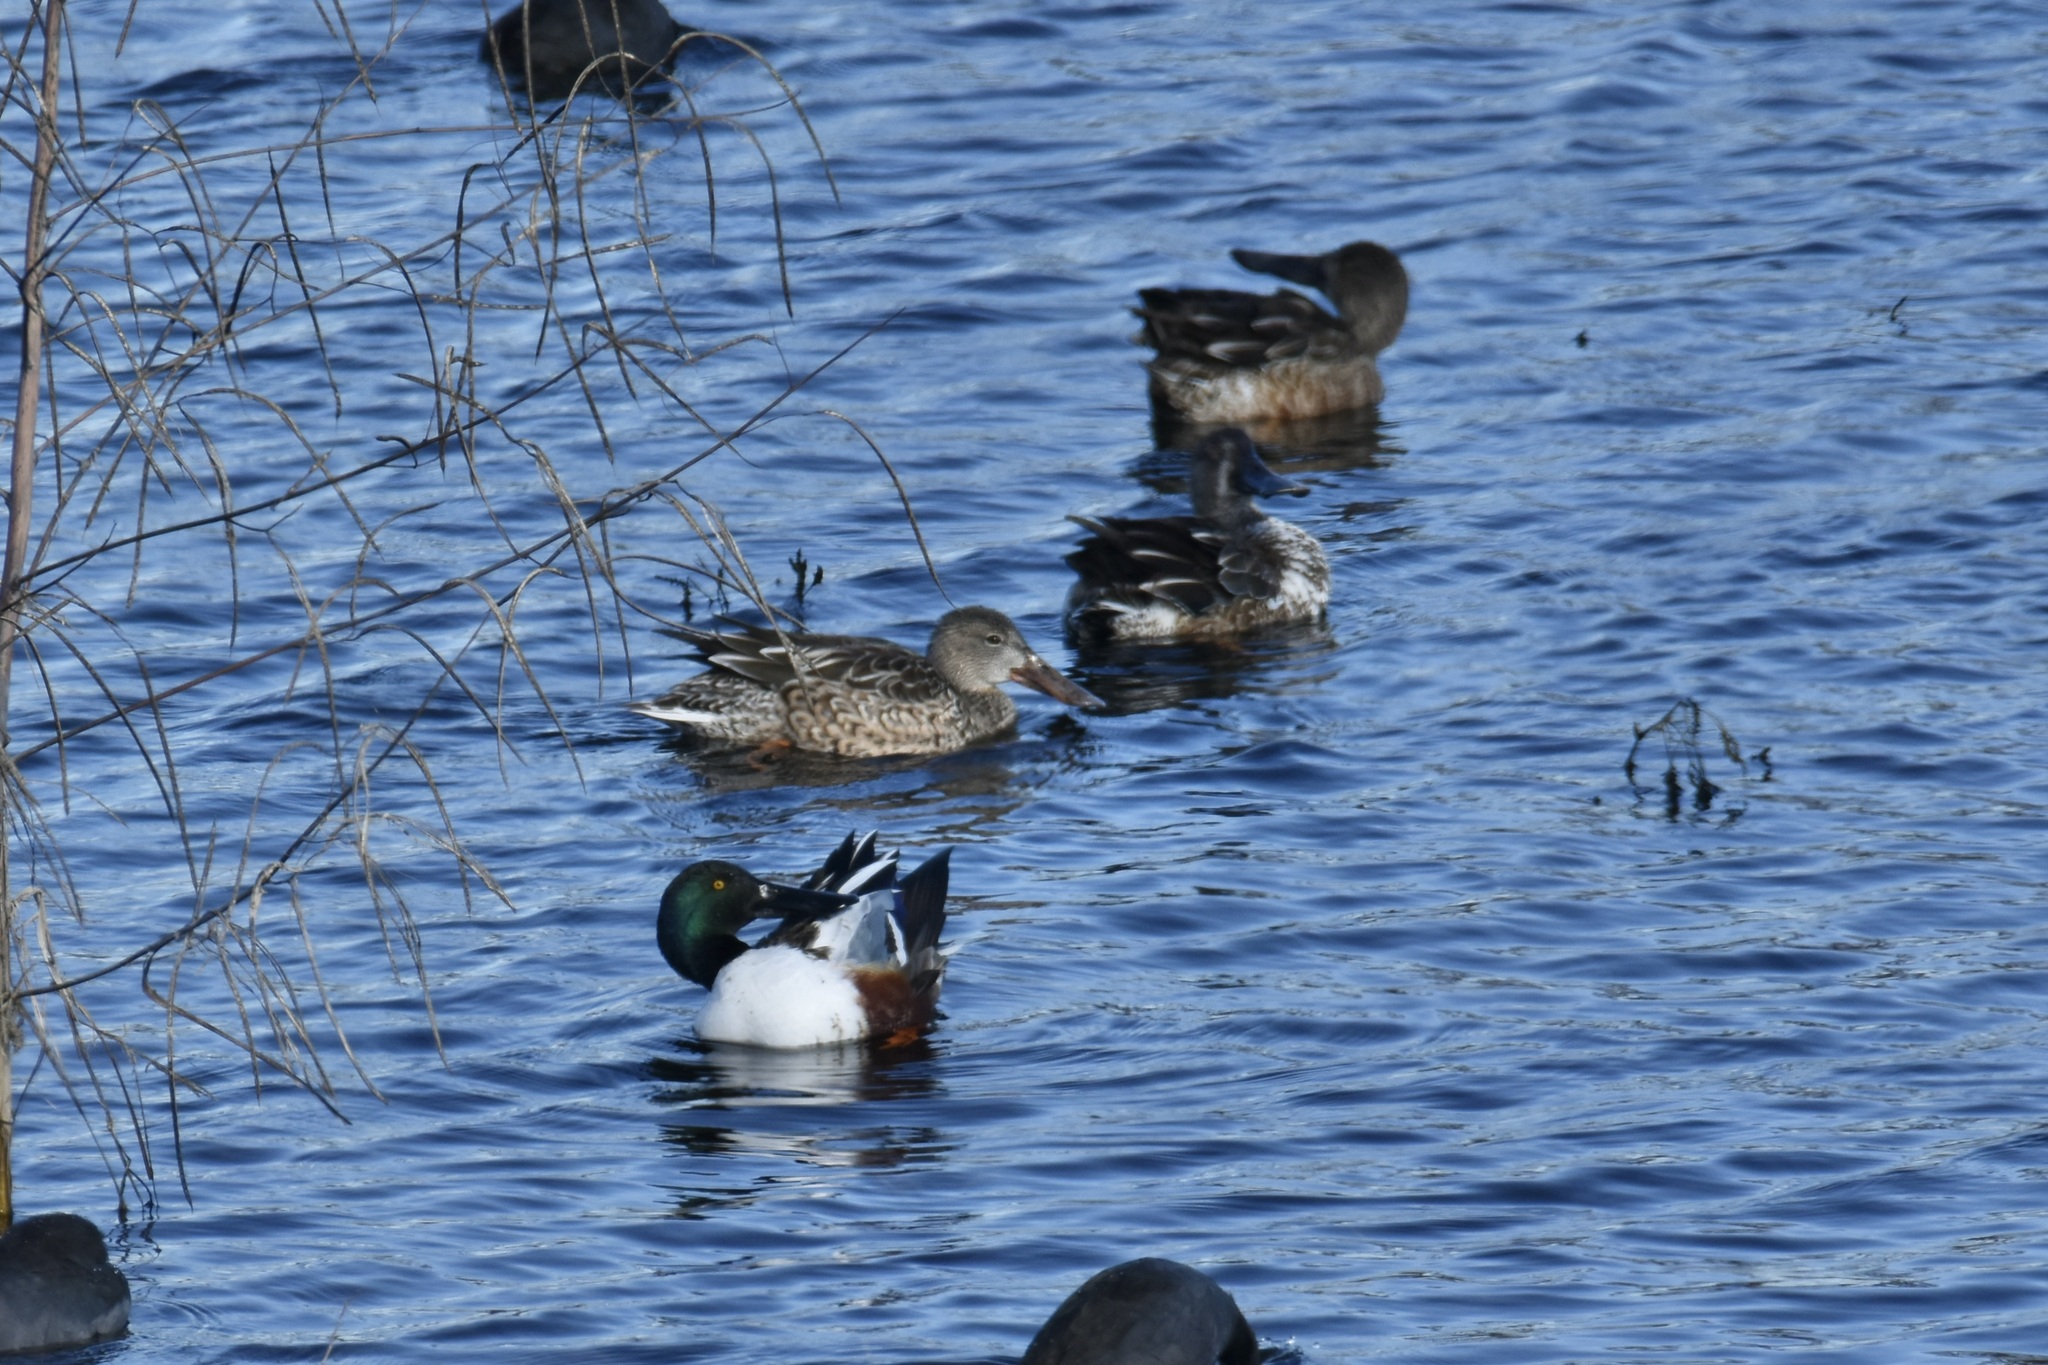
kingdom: Animalia
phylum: Chordata
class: Aves
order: Anseriformes
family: Anatidae
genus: Spatula
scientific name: Spatula clypeata
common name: Northern shoveler
